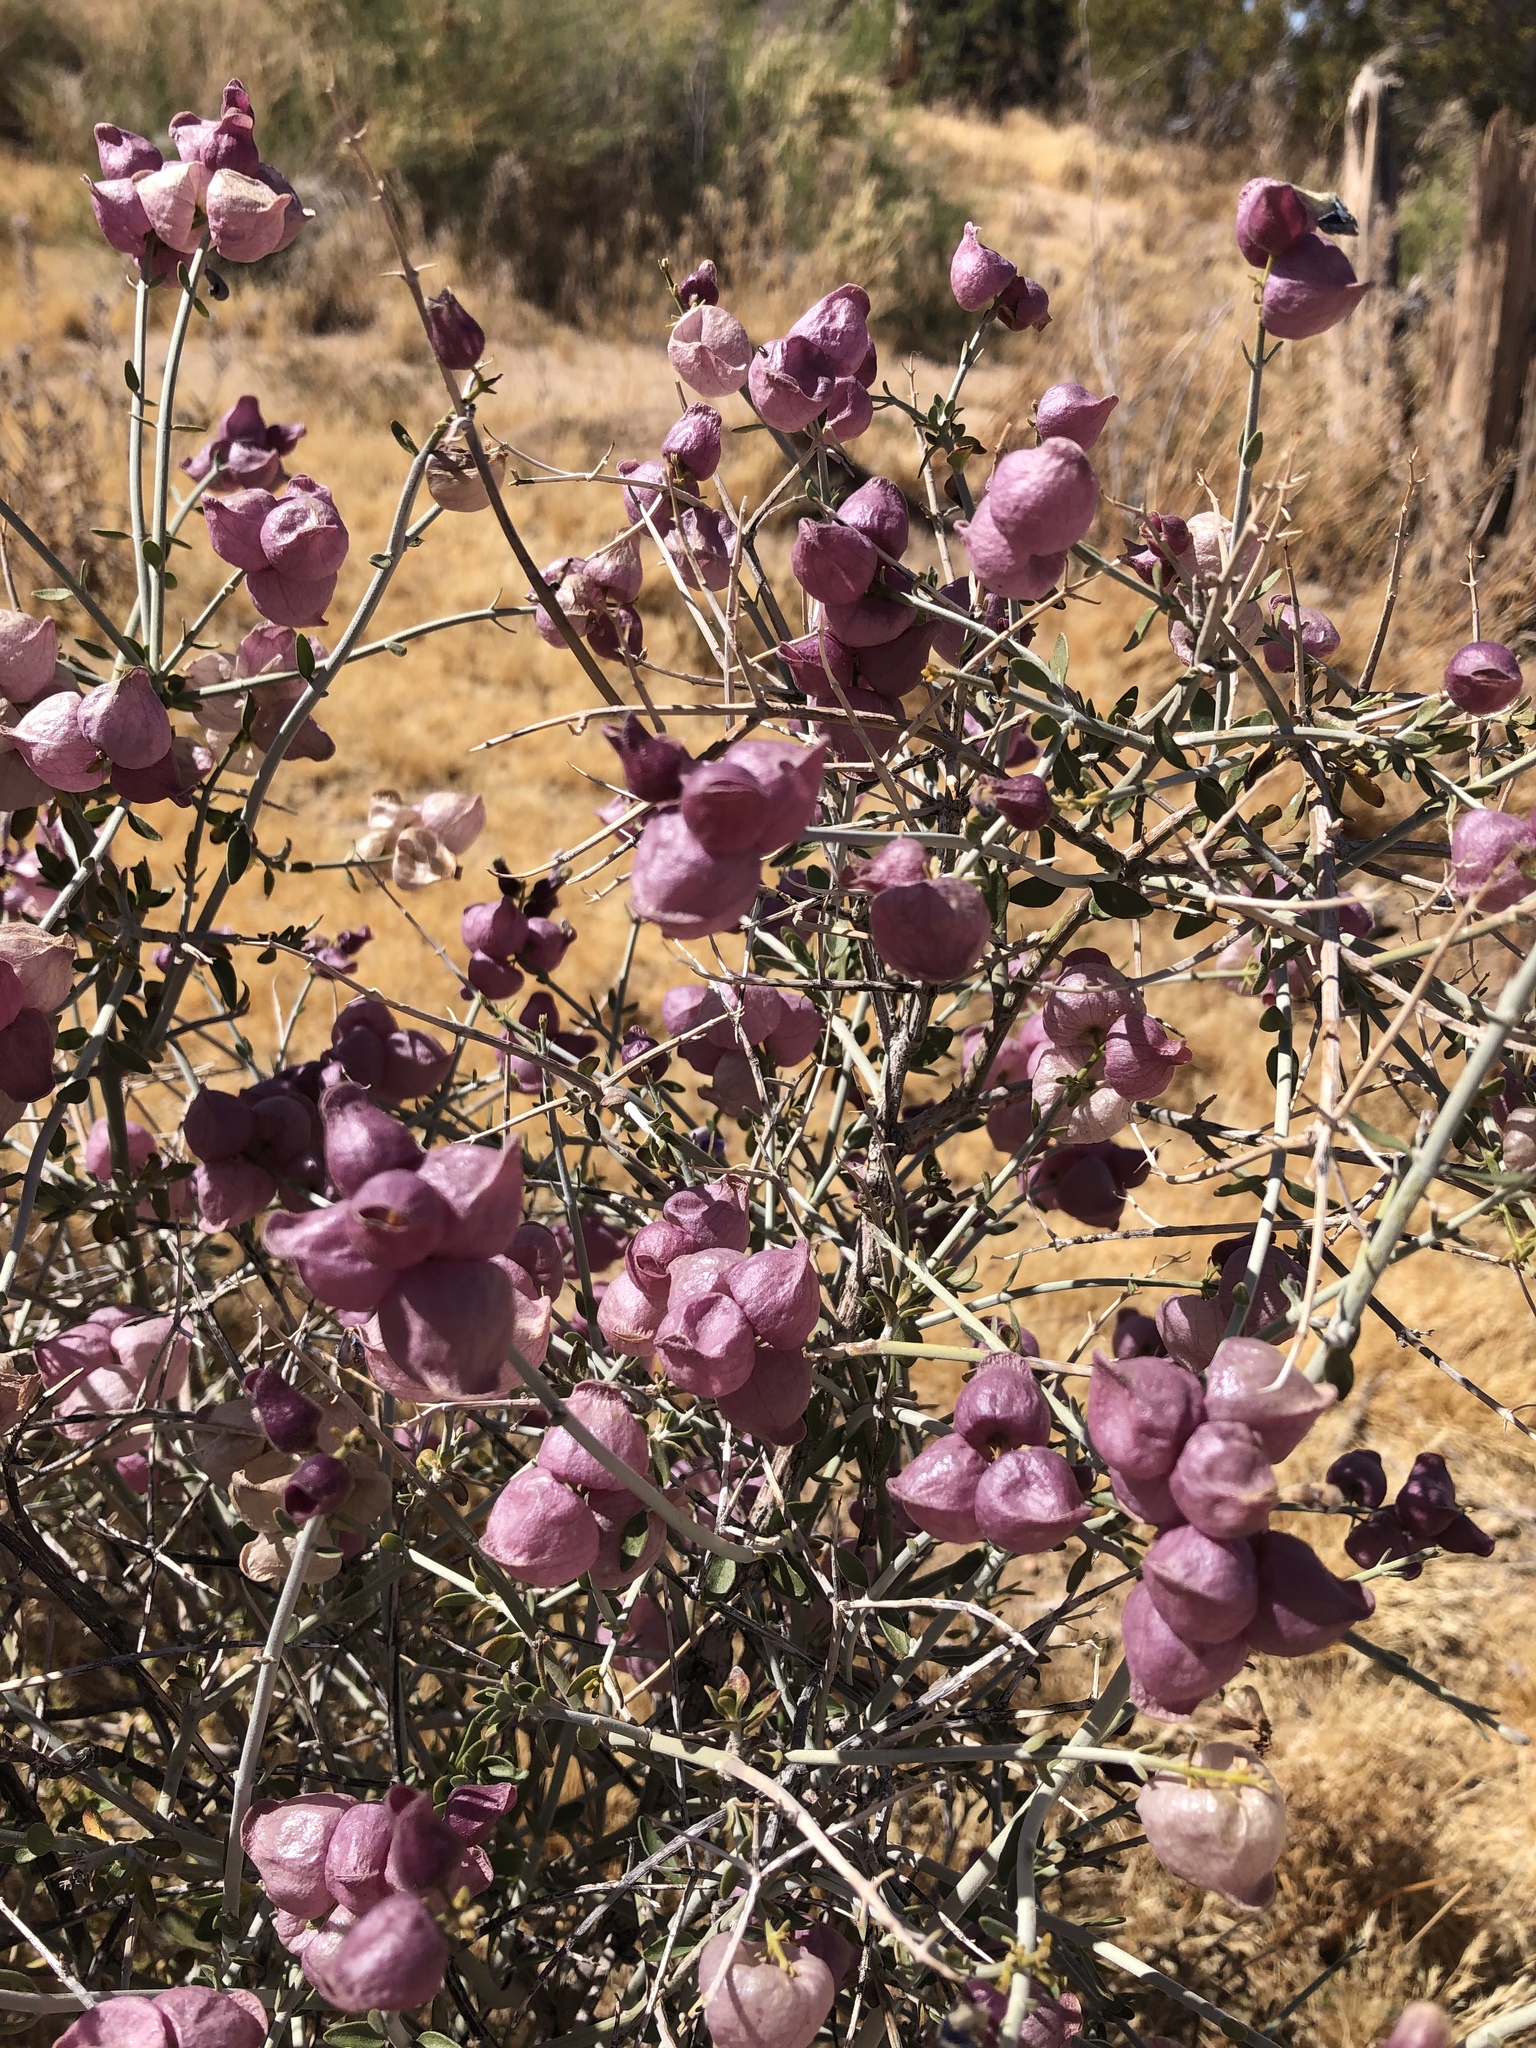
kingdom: Plantae
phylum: Tracheophyta
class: Magnoliopsida
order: Lamiales
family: Lamiaceae
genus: Scutellaria
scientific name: Scutellaria mexicana
